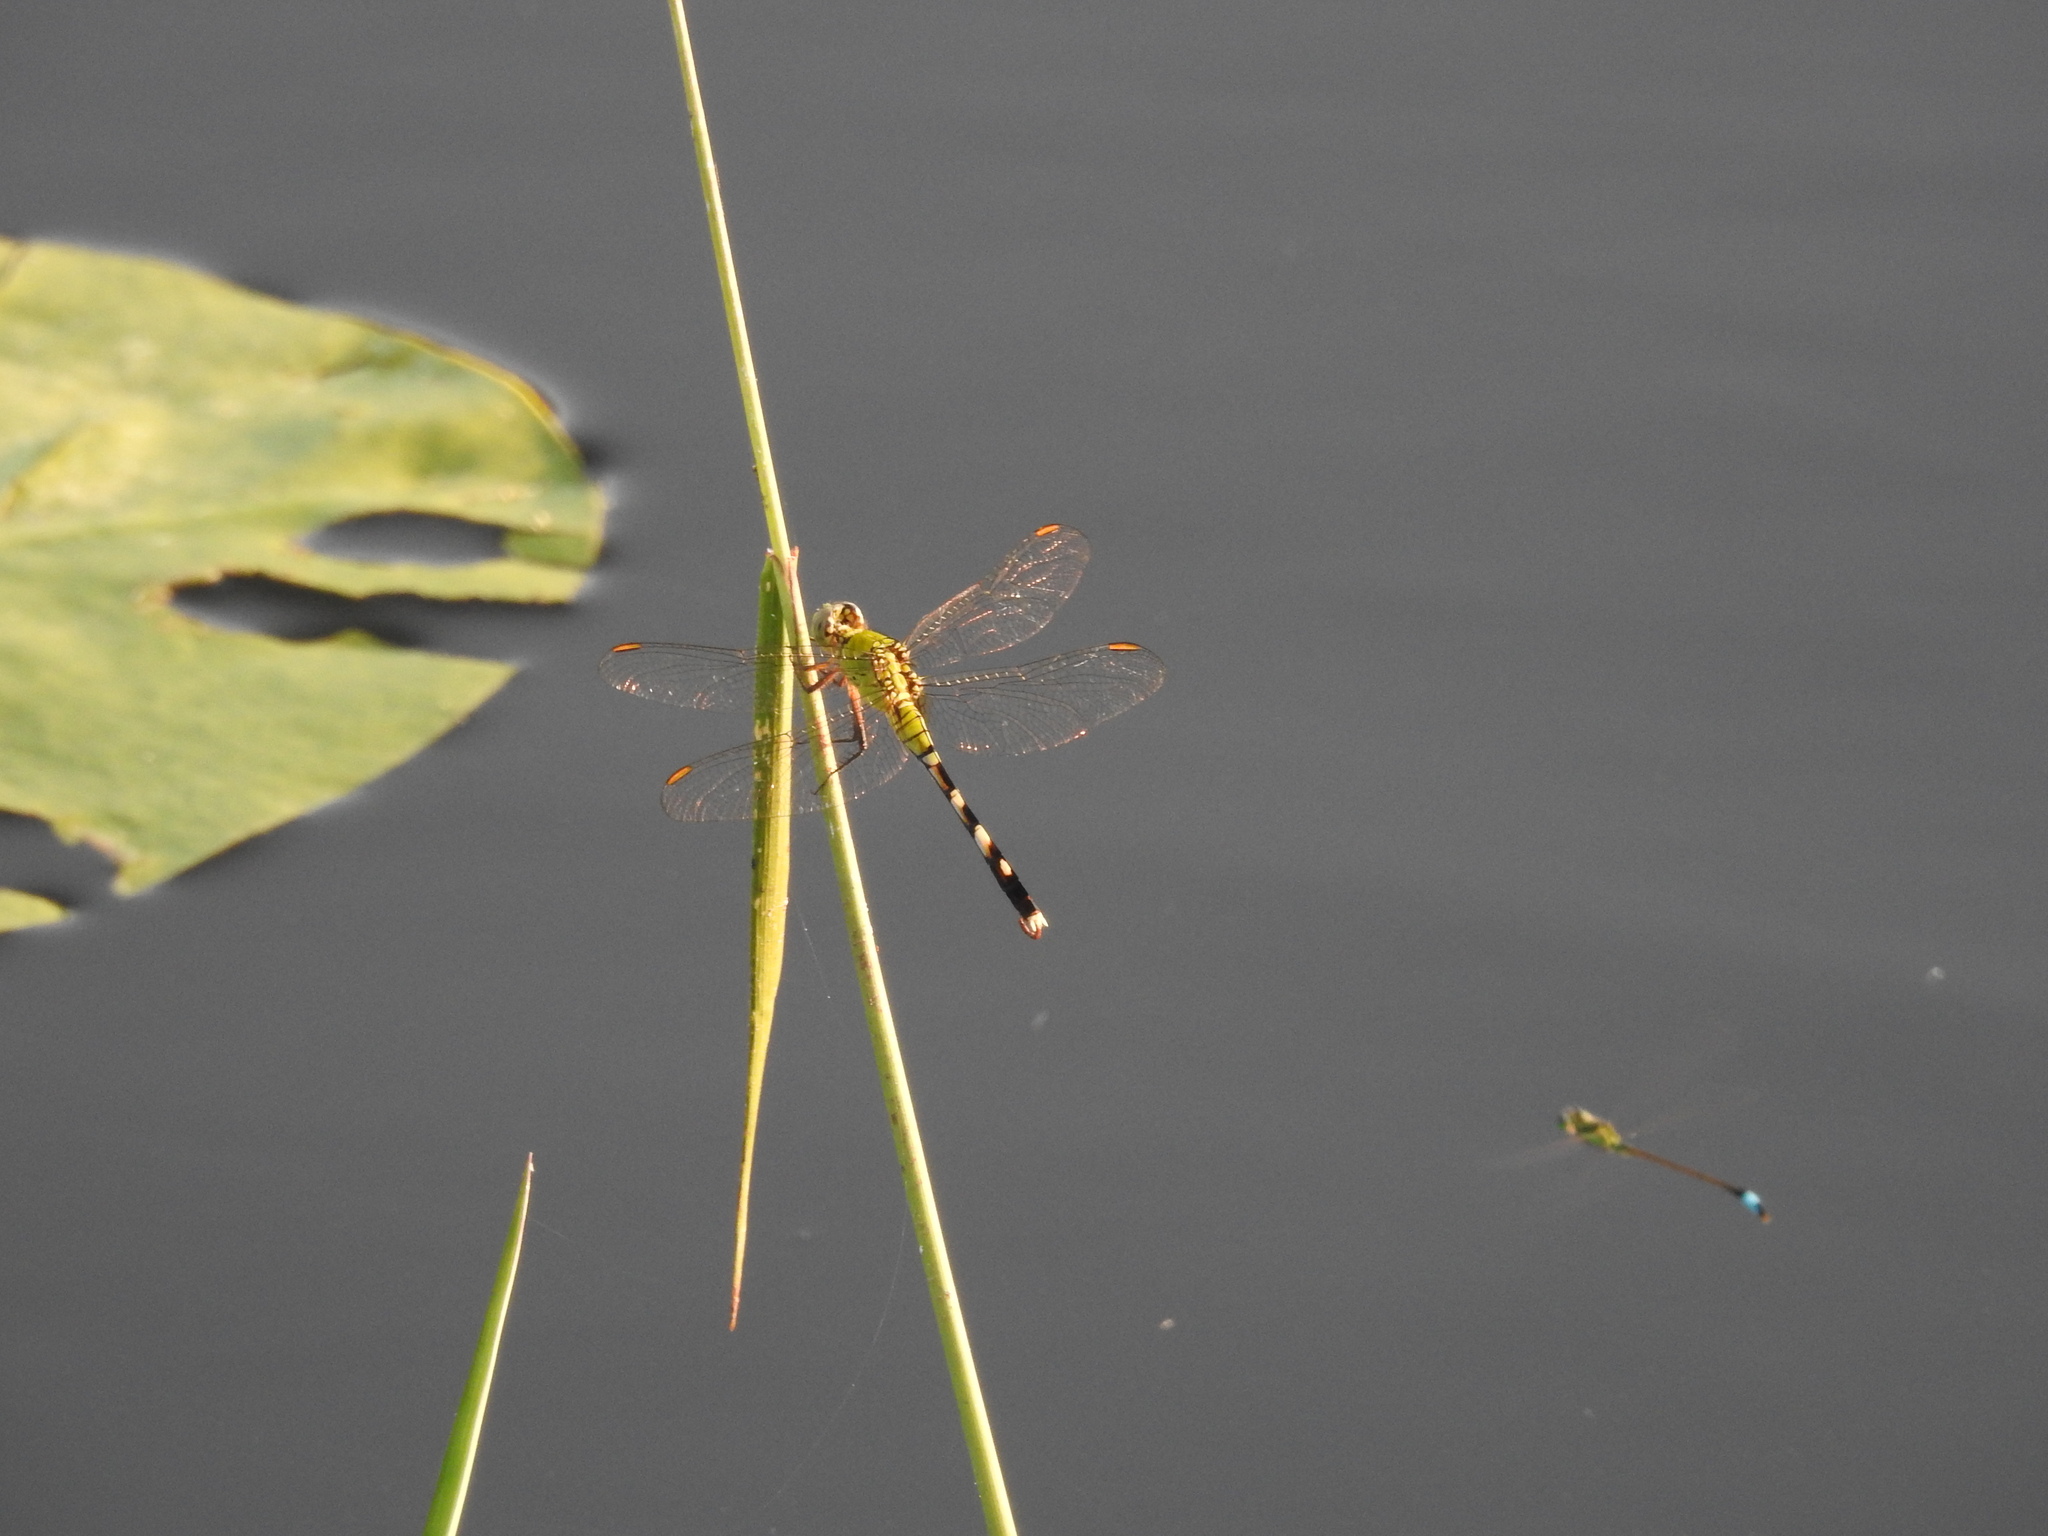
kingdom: Animalia
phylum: Arthropoda
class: Insecta
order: Odonata
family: Libellulidae
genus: Erythemis
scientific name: Erythemis simplicicollis
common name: Eastern pondhawk
